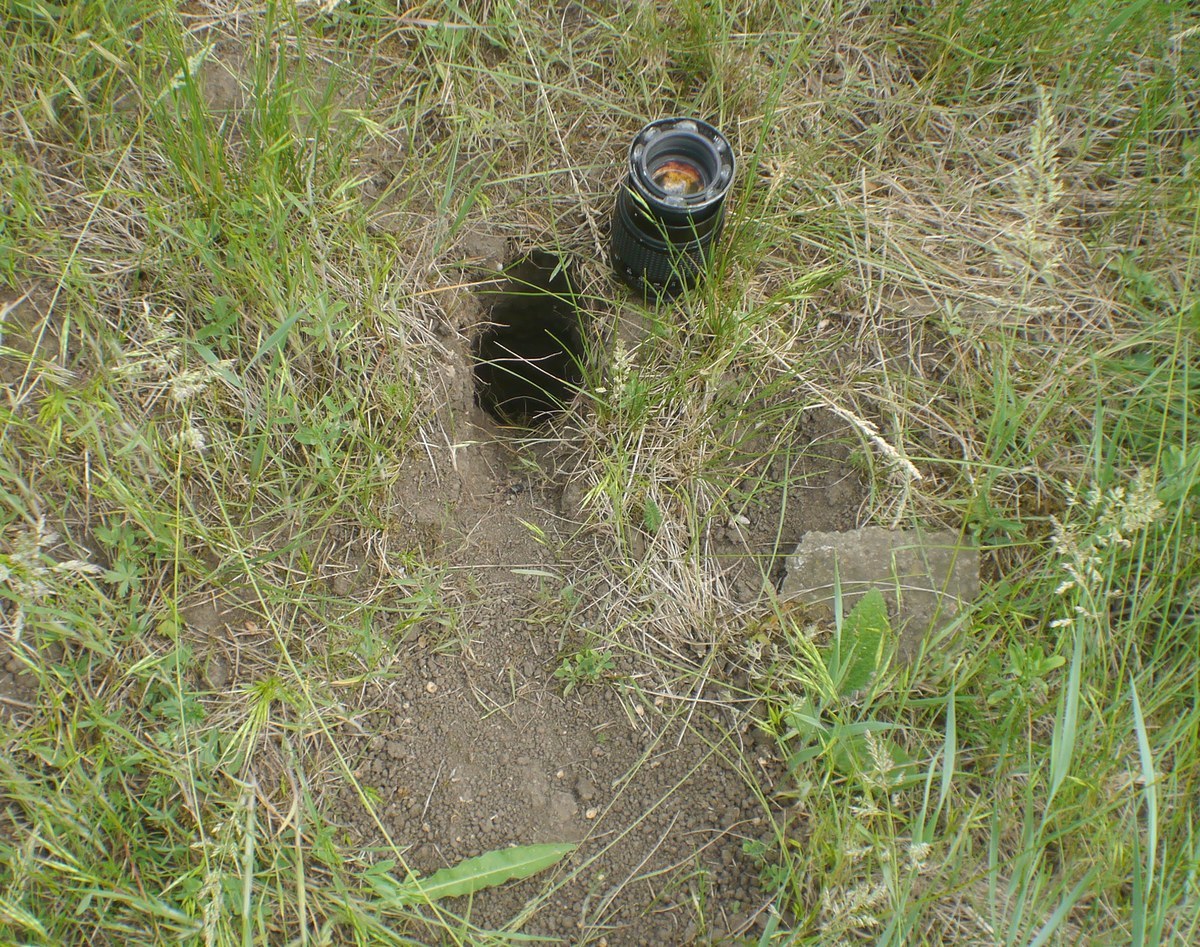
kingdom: Animalia
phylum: Chordata
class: Mammalia
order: Rodentia
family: Cricetidae
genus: Cricetus
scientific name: Cricetus cricetus
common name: Common hamster
